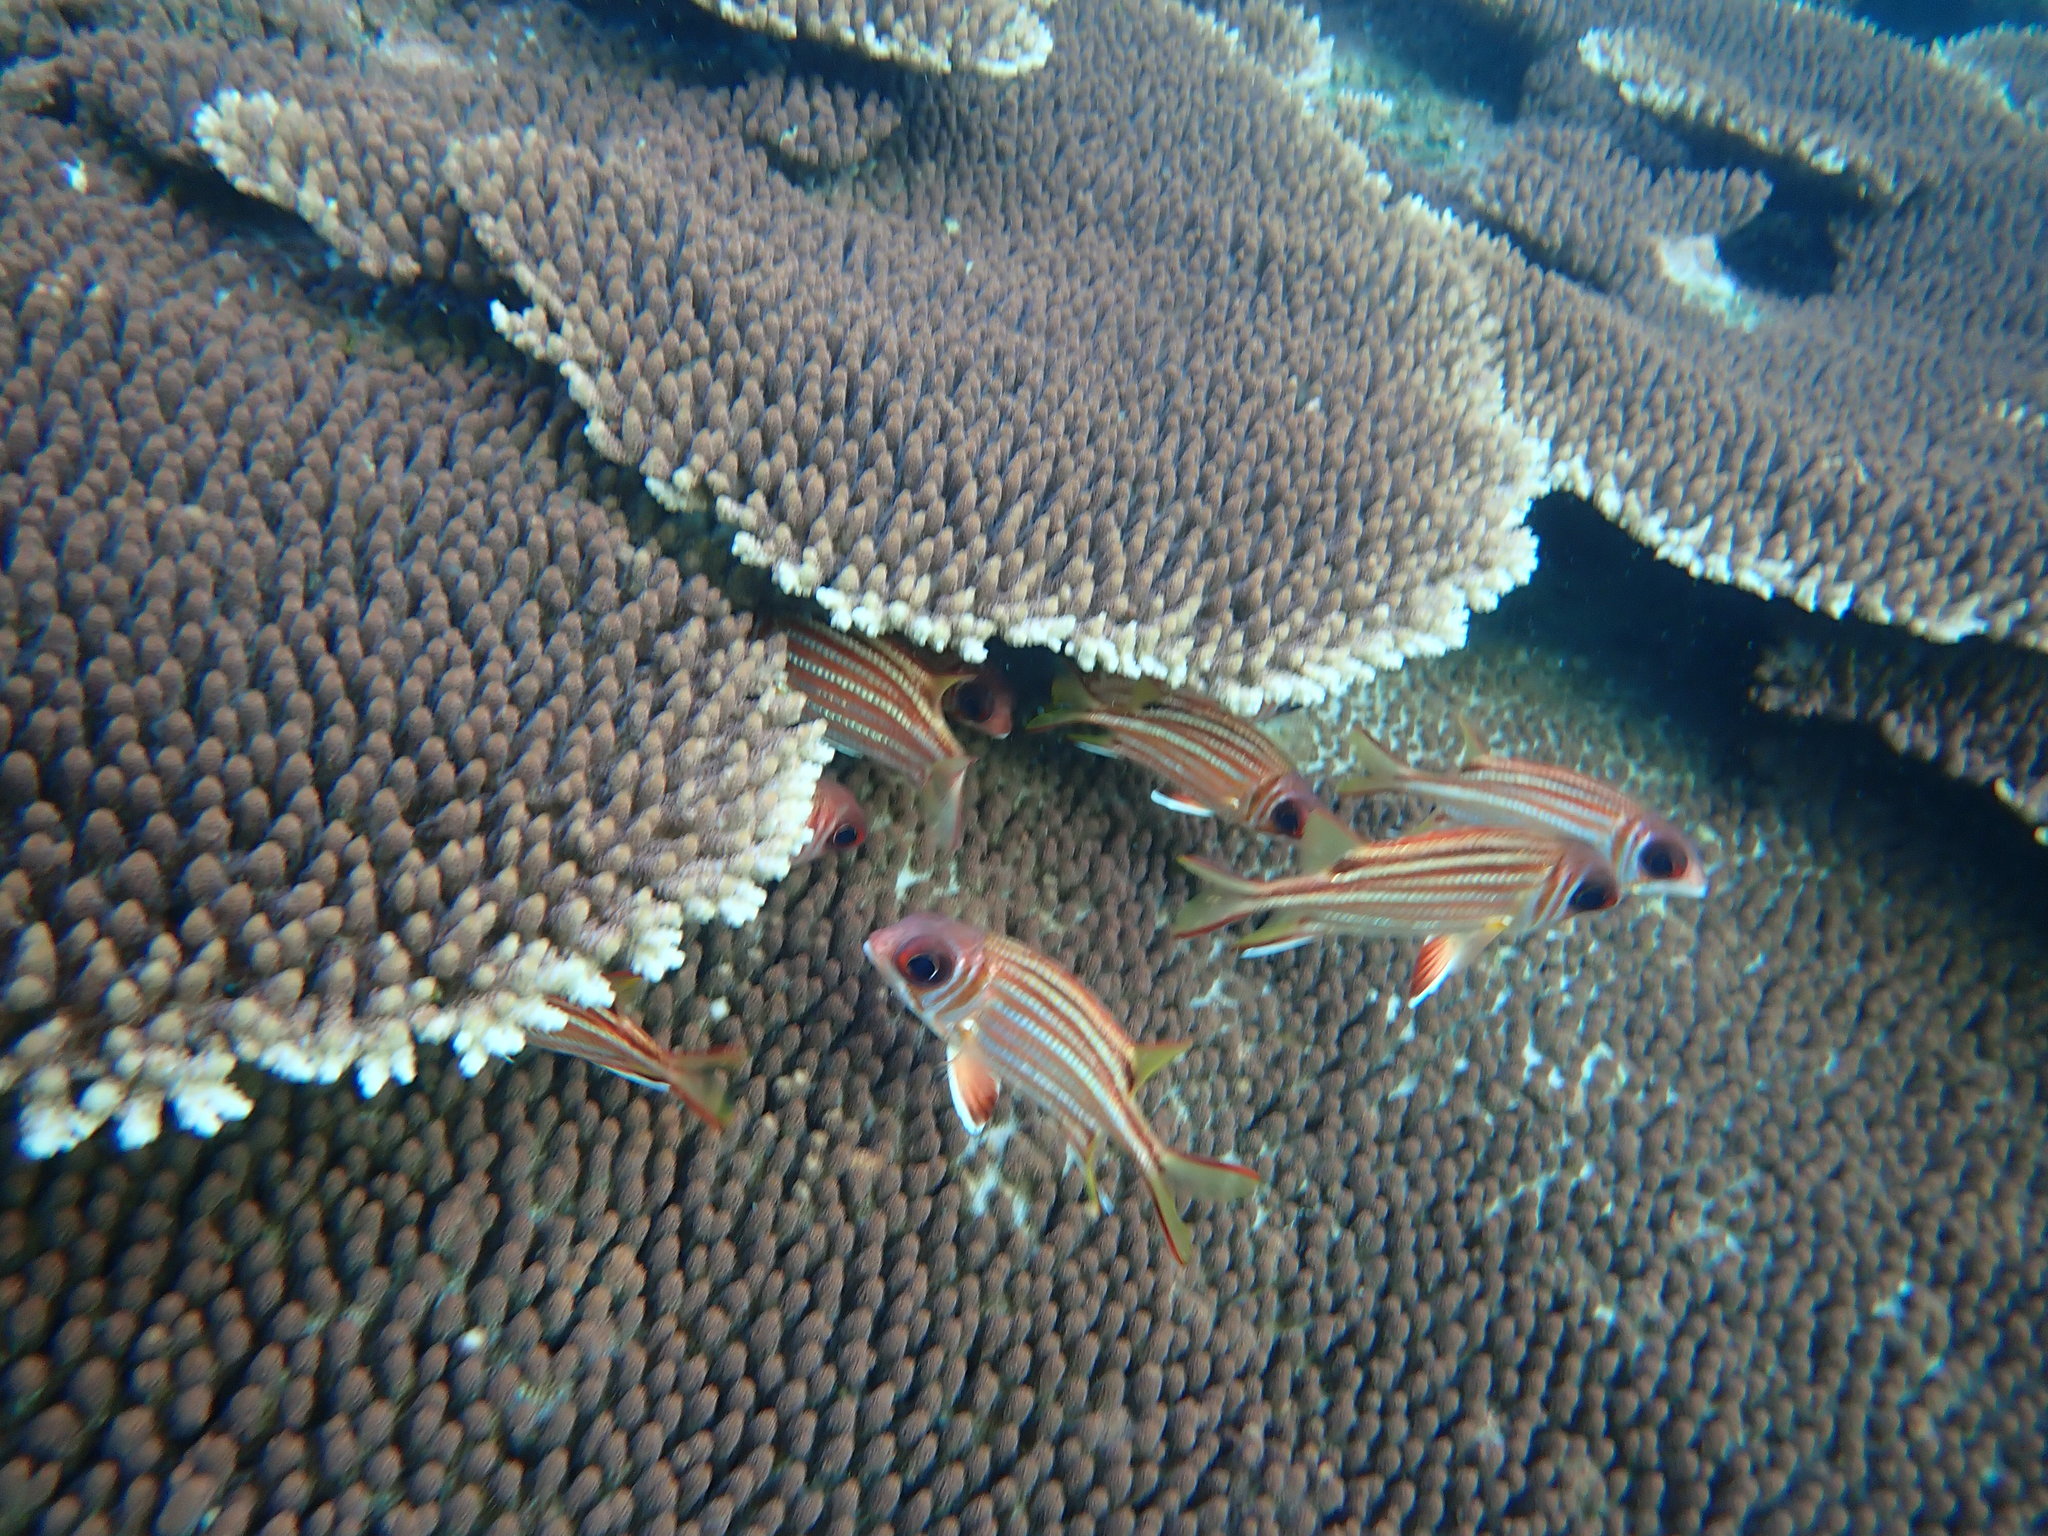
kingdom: Animalia
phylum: Chordata
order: Beryciformes
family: Holocentridae
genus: Sargocentron
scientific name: Sargocentron rubrum
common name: Redcoat
